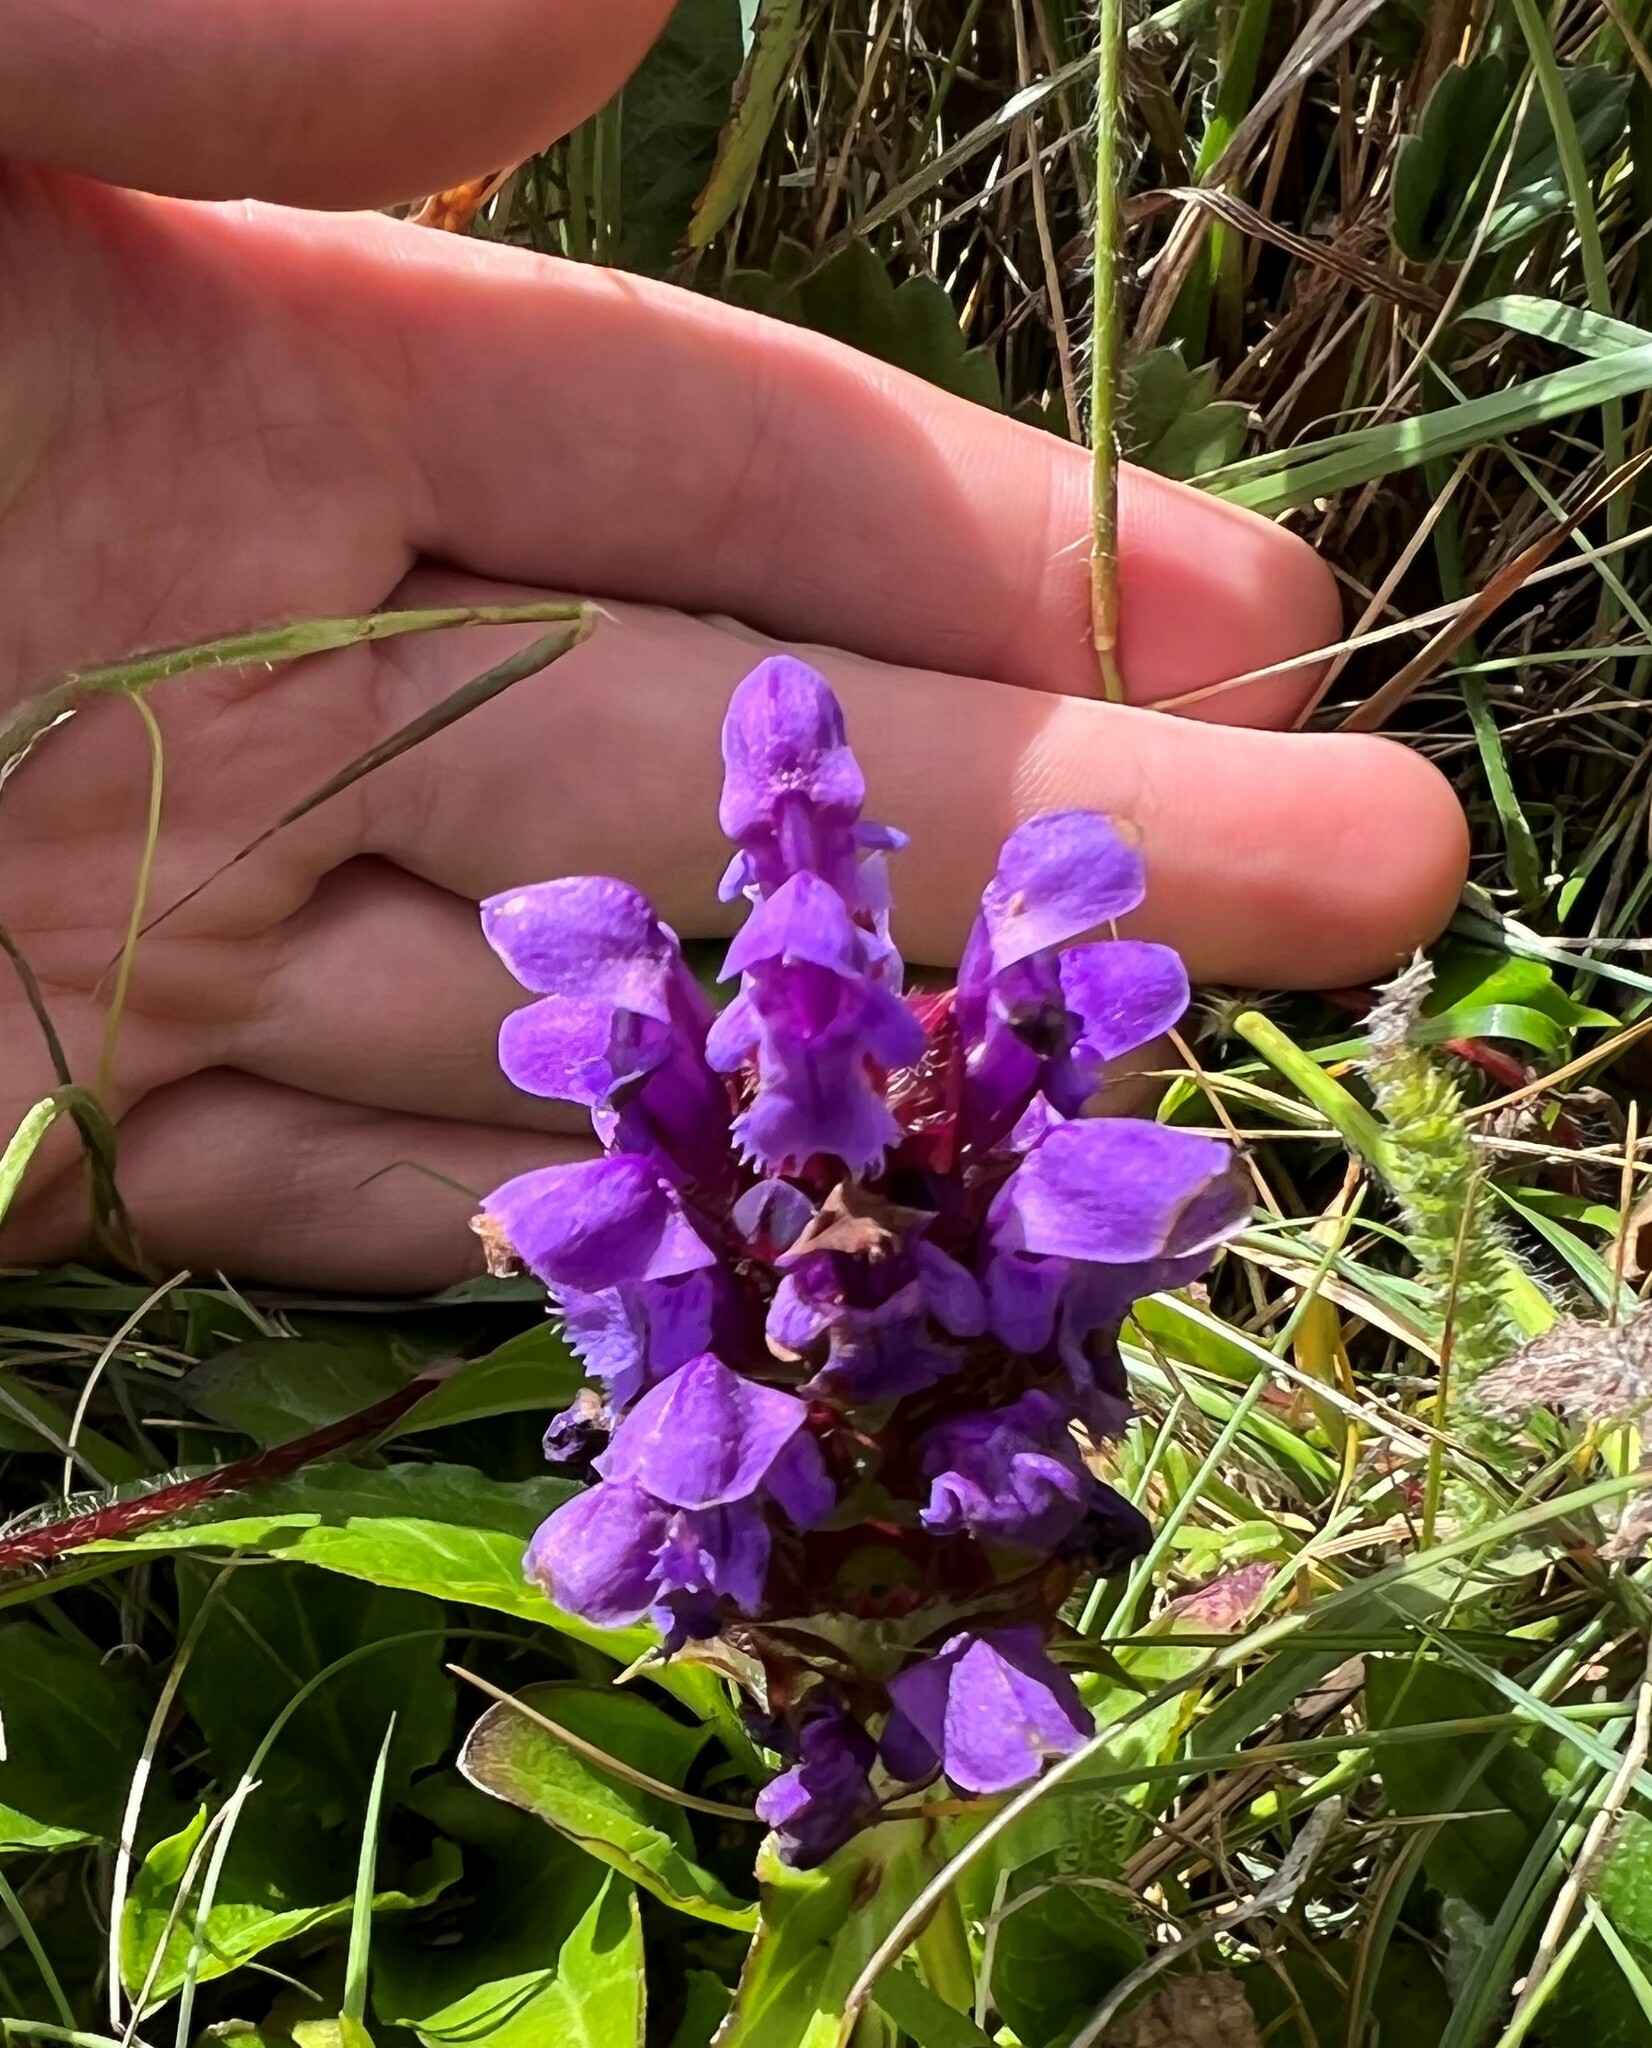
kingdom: Plantae
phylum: Tracheophyta
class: Magnoliopsida
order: Lamiales
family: Lamiaceae
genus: Prunella
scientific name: Prunella vulgaris
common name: Heal-all
